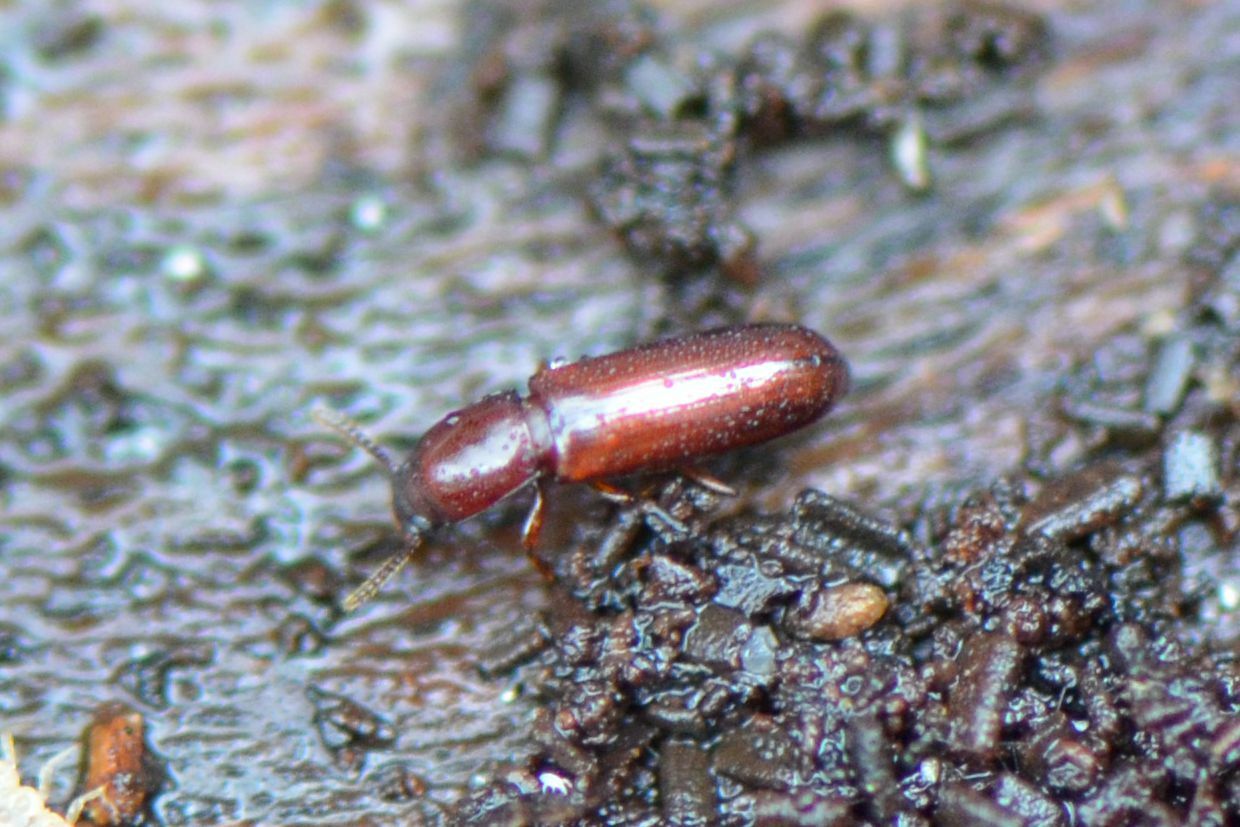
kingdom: Animalia
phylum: Arthropoda
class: Insecta
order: Coleoptera
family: Tenebrionidae
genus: Corticeus
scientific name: Corticeus unicolor
